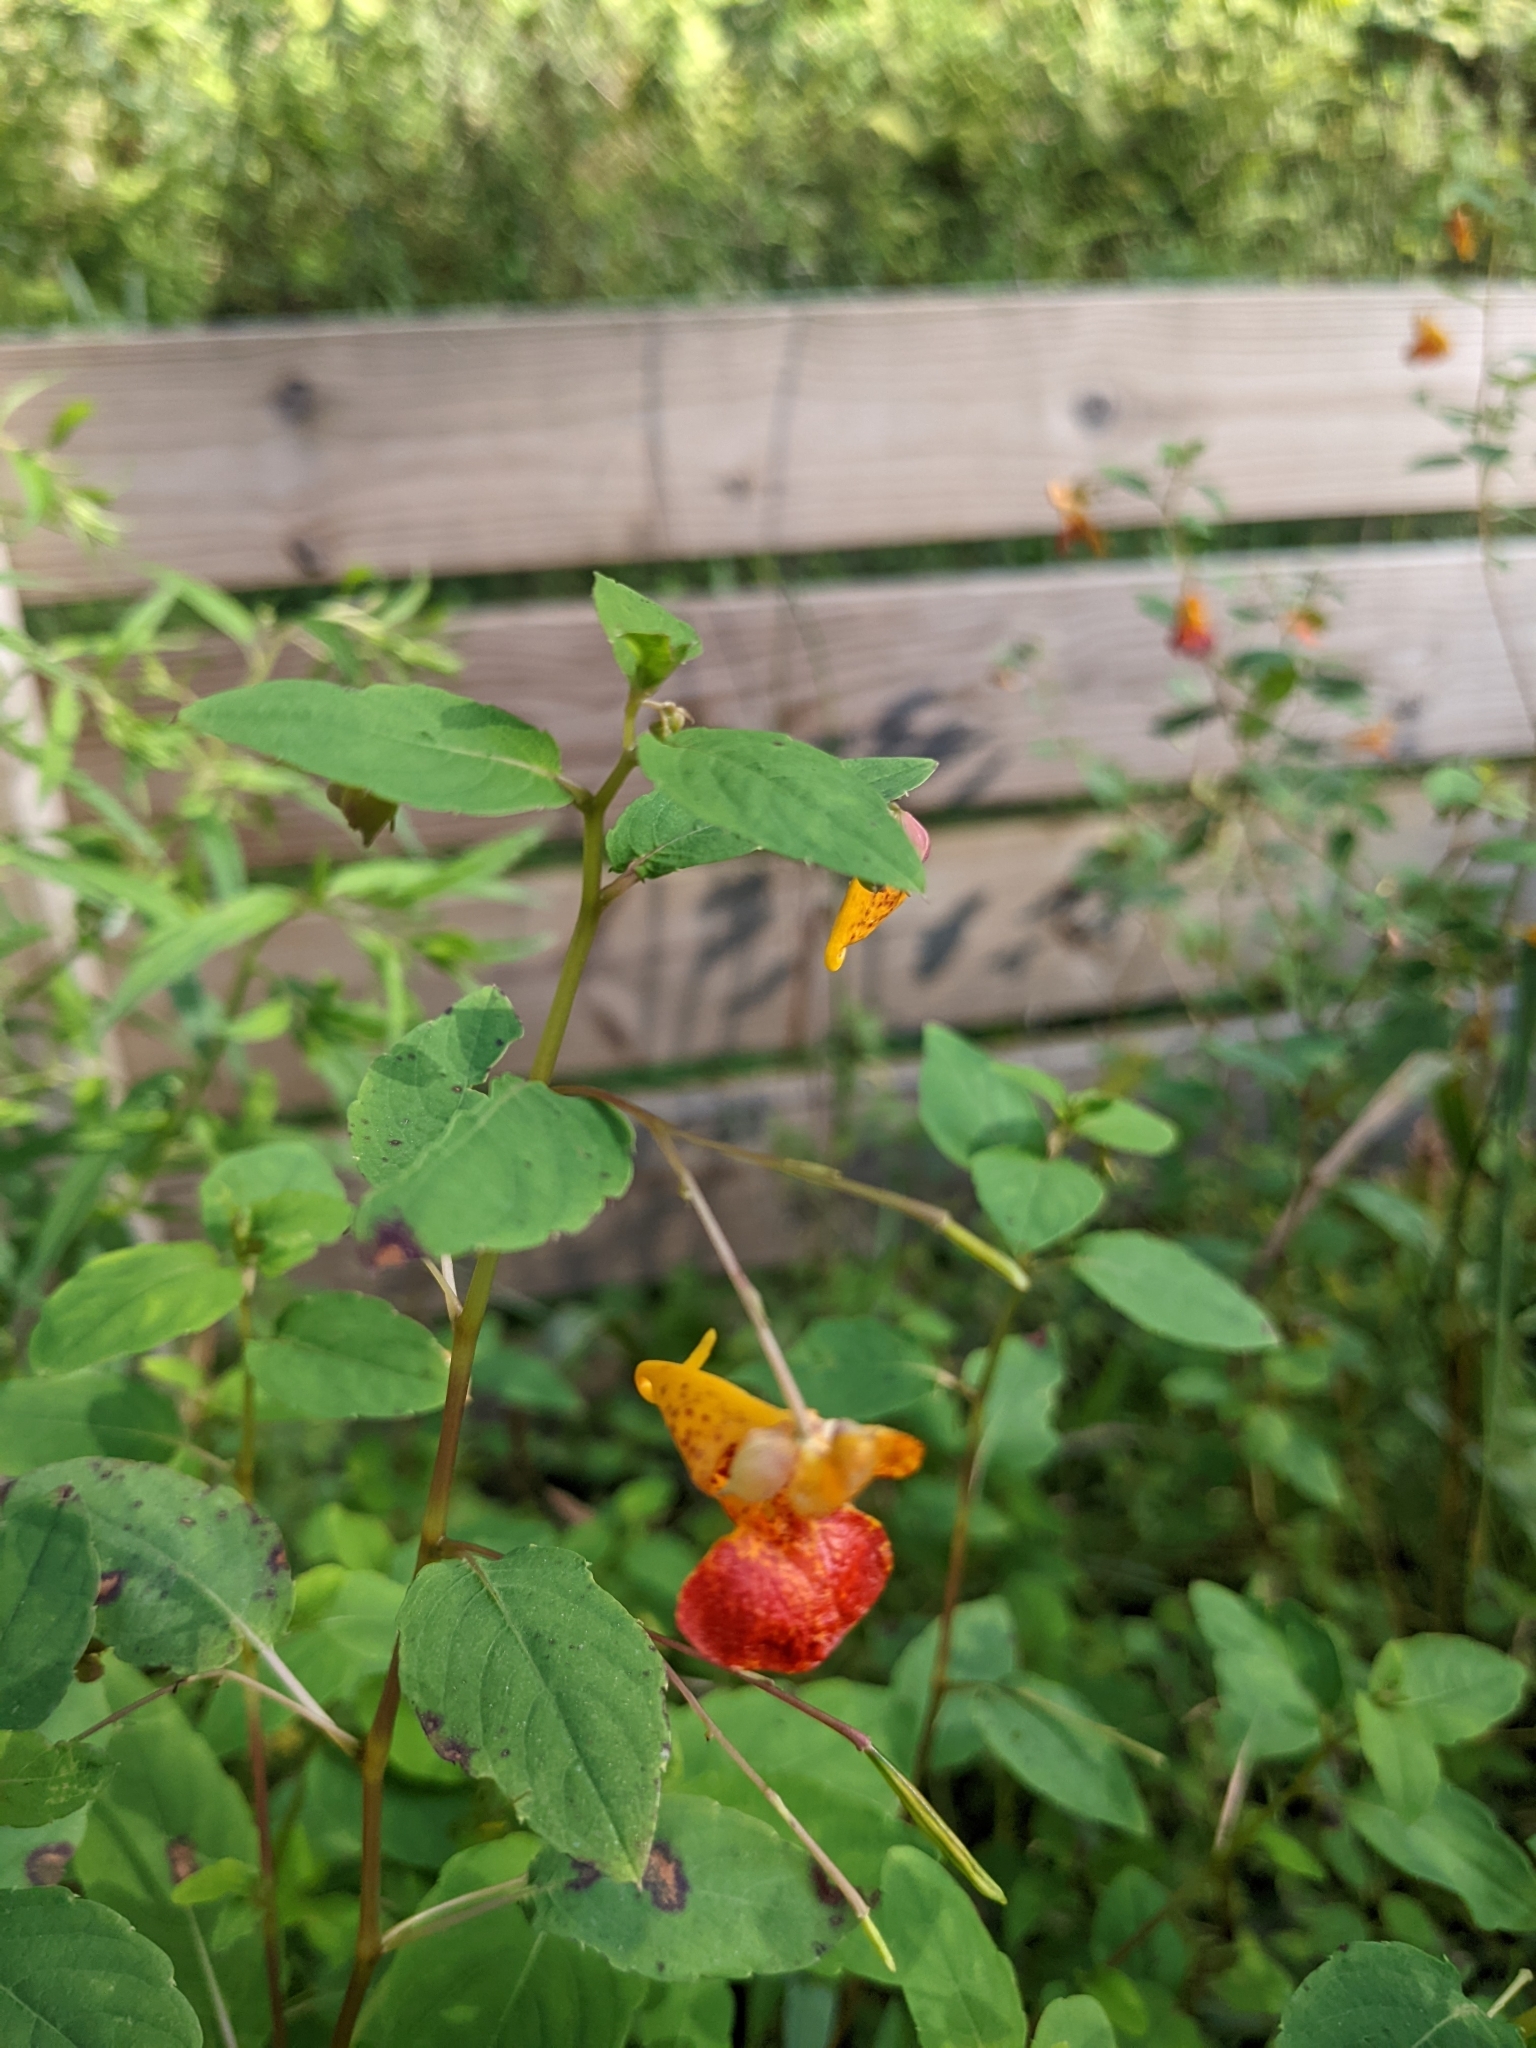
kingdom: Plantae
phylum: Tracheophyta
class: Magnoliopsida
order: Ericales
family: Balsaminaceae
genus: Impatiens
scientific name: Impatiens capensis
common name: Orange balsam
